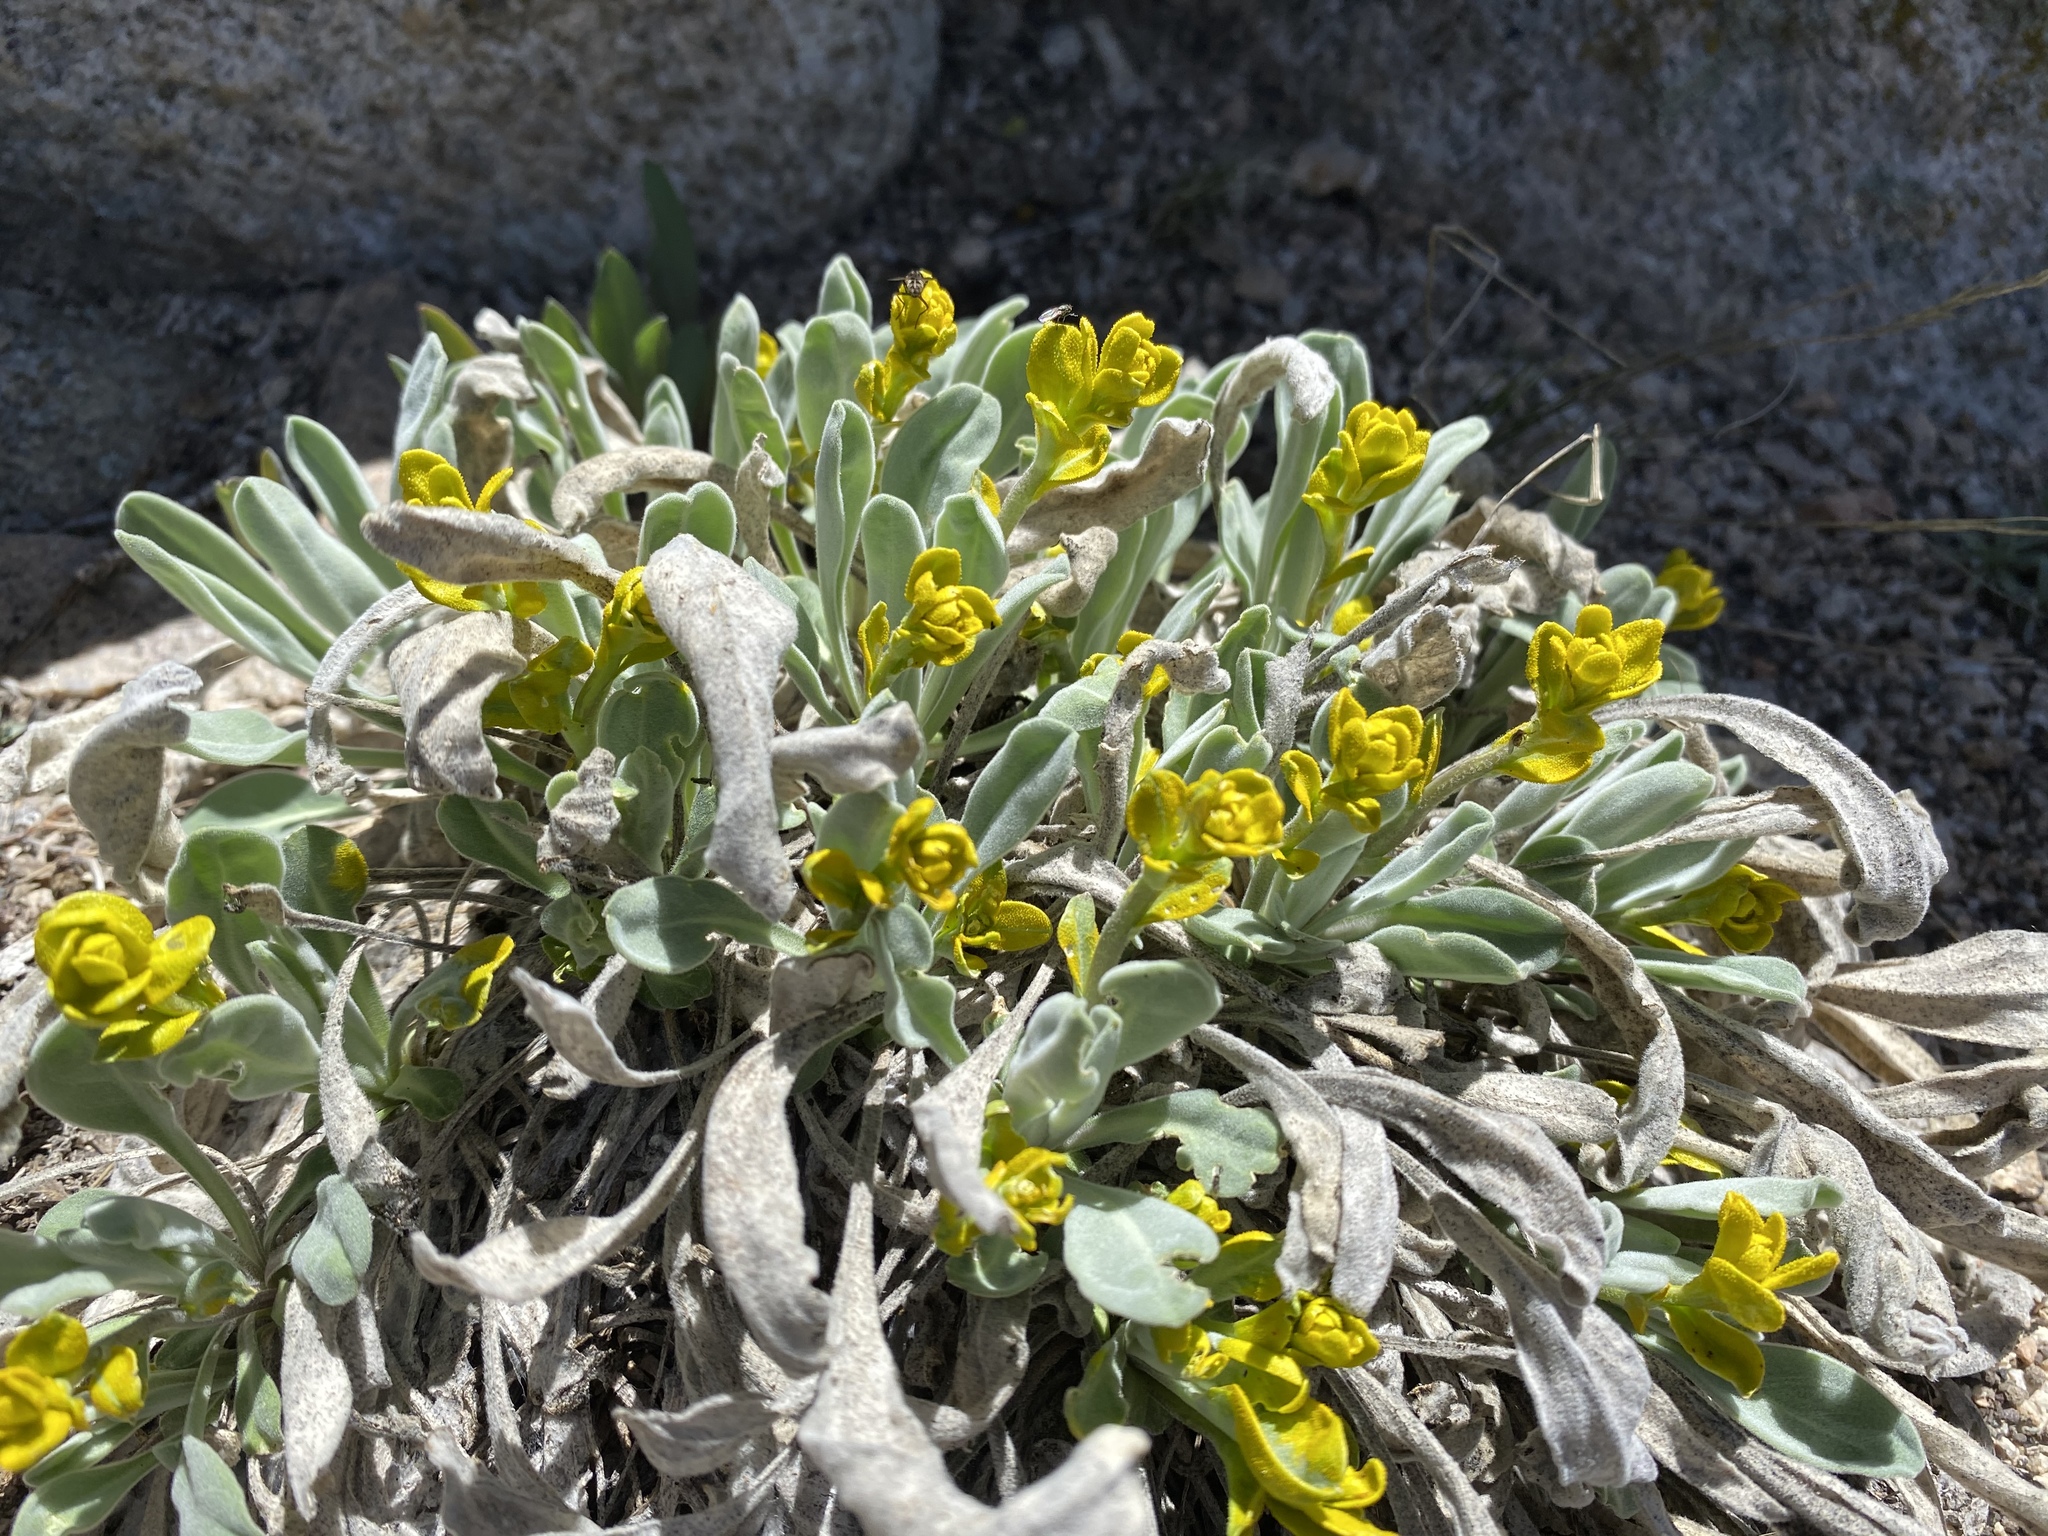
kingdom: Fungi
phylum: Basidiomycota
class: Pucciniomycetes
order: Pucciniales
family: Pucciniaceae
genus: Puccinia
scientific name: Puccinia monoica
